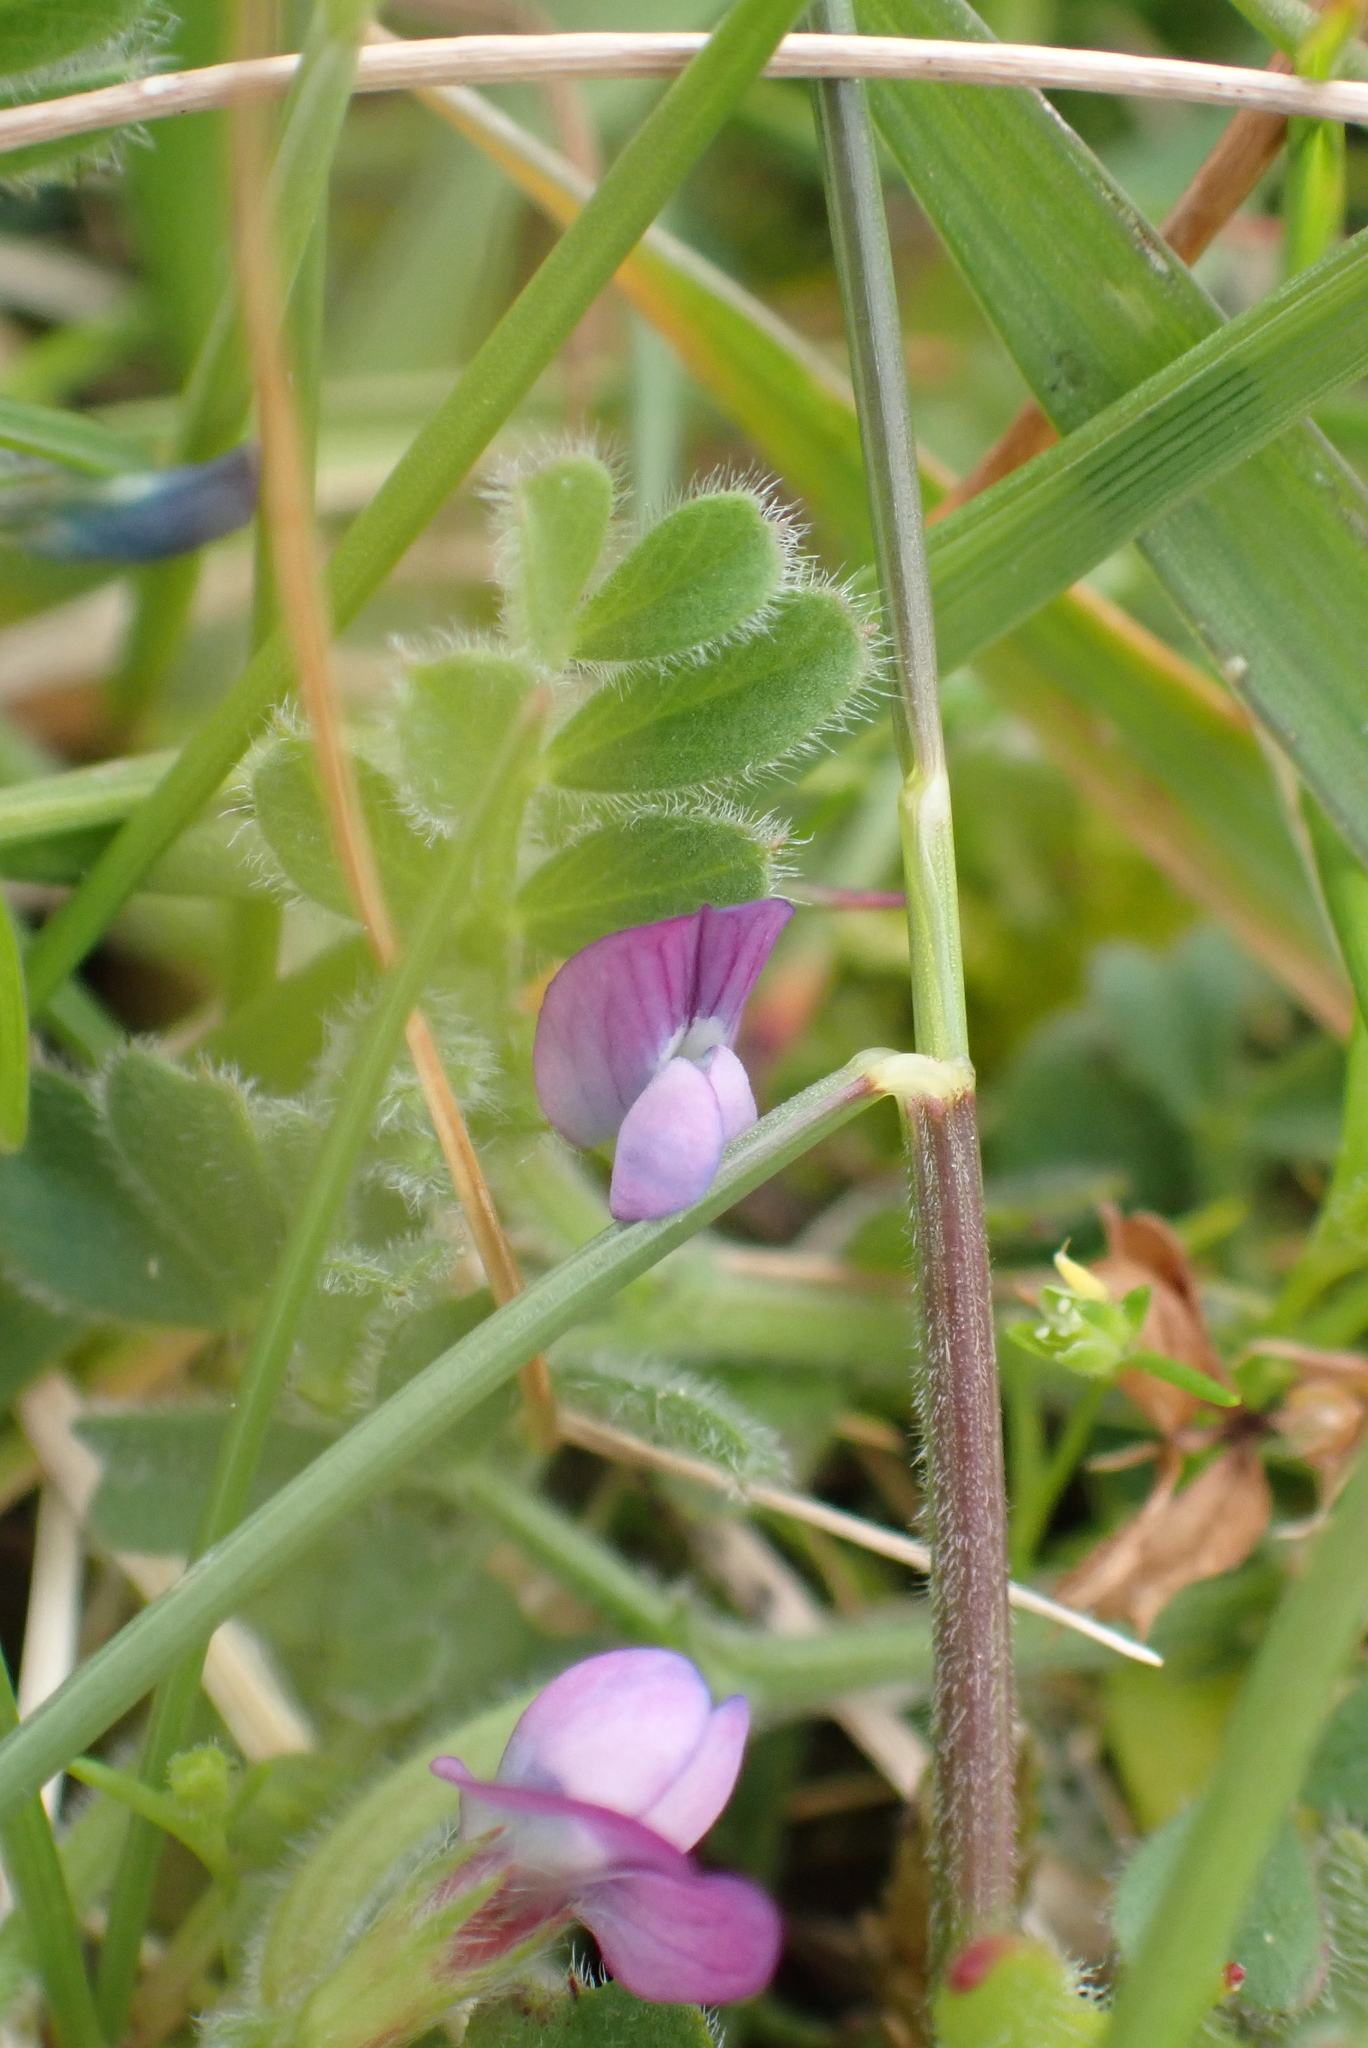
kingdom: Plantae
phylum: Tracheophyta
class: Magnoliopsida
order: Fabales
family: Fabaceae
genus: Vicia
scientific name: Vicia lathyroides
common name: Spring vetch
